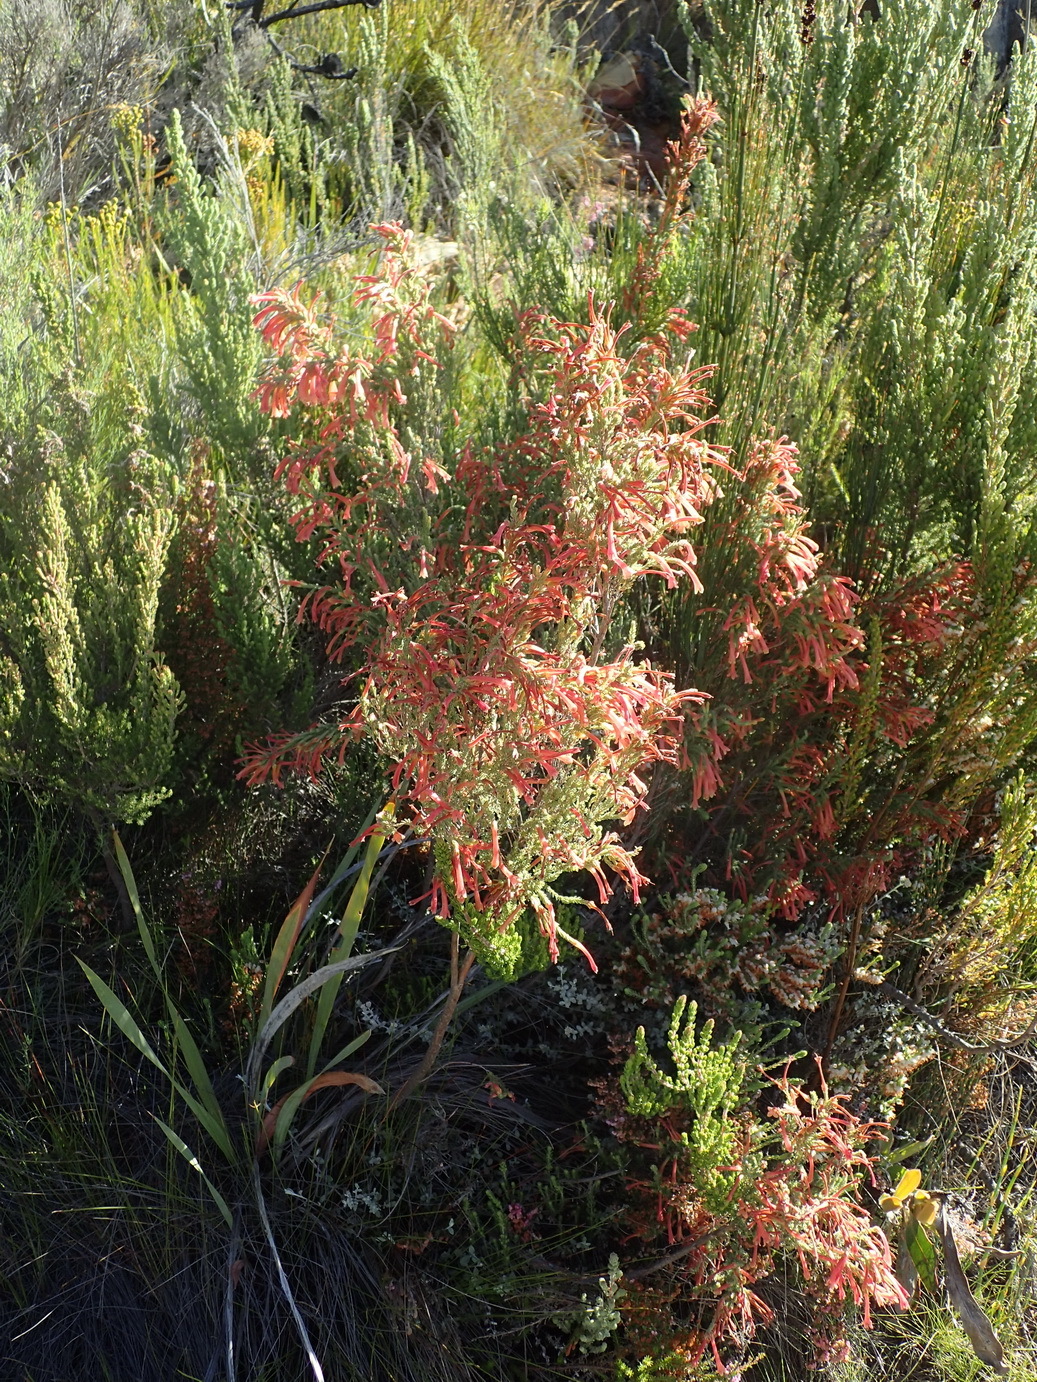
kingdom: Plantae
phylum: Tracheophyta
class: Magnoliopsida
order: Ericales
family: Ericaceae
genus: Erica
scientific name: Erica curviflora
